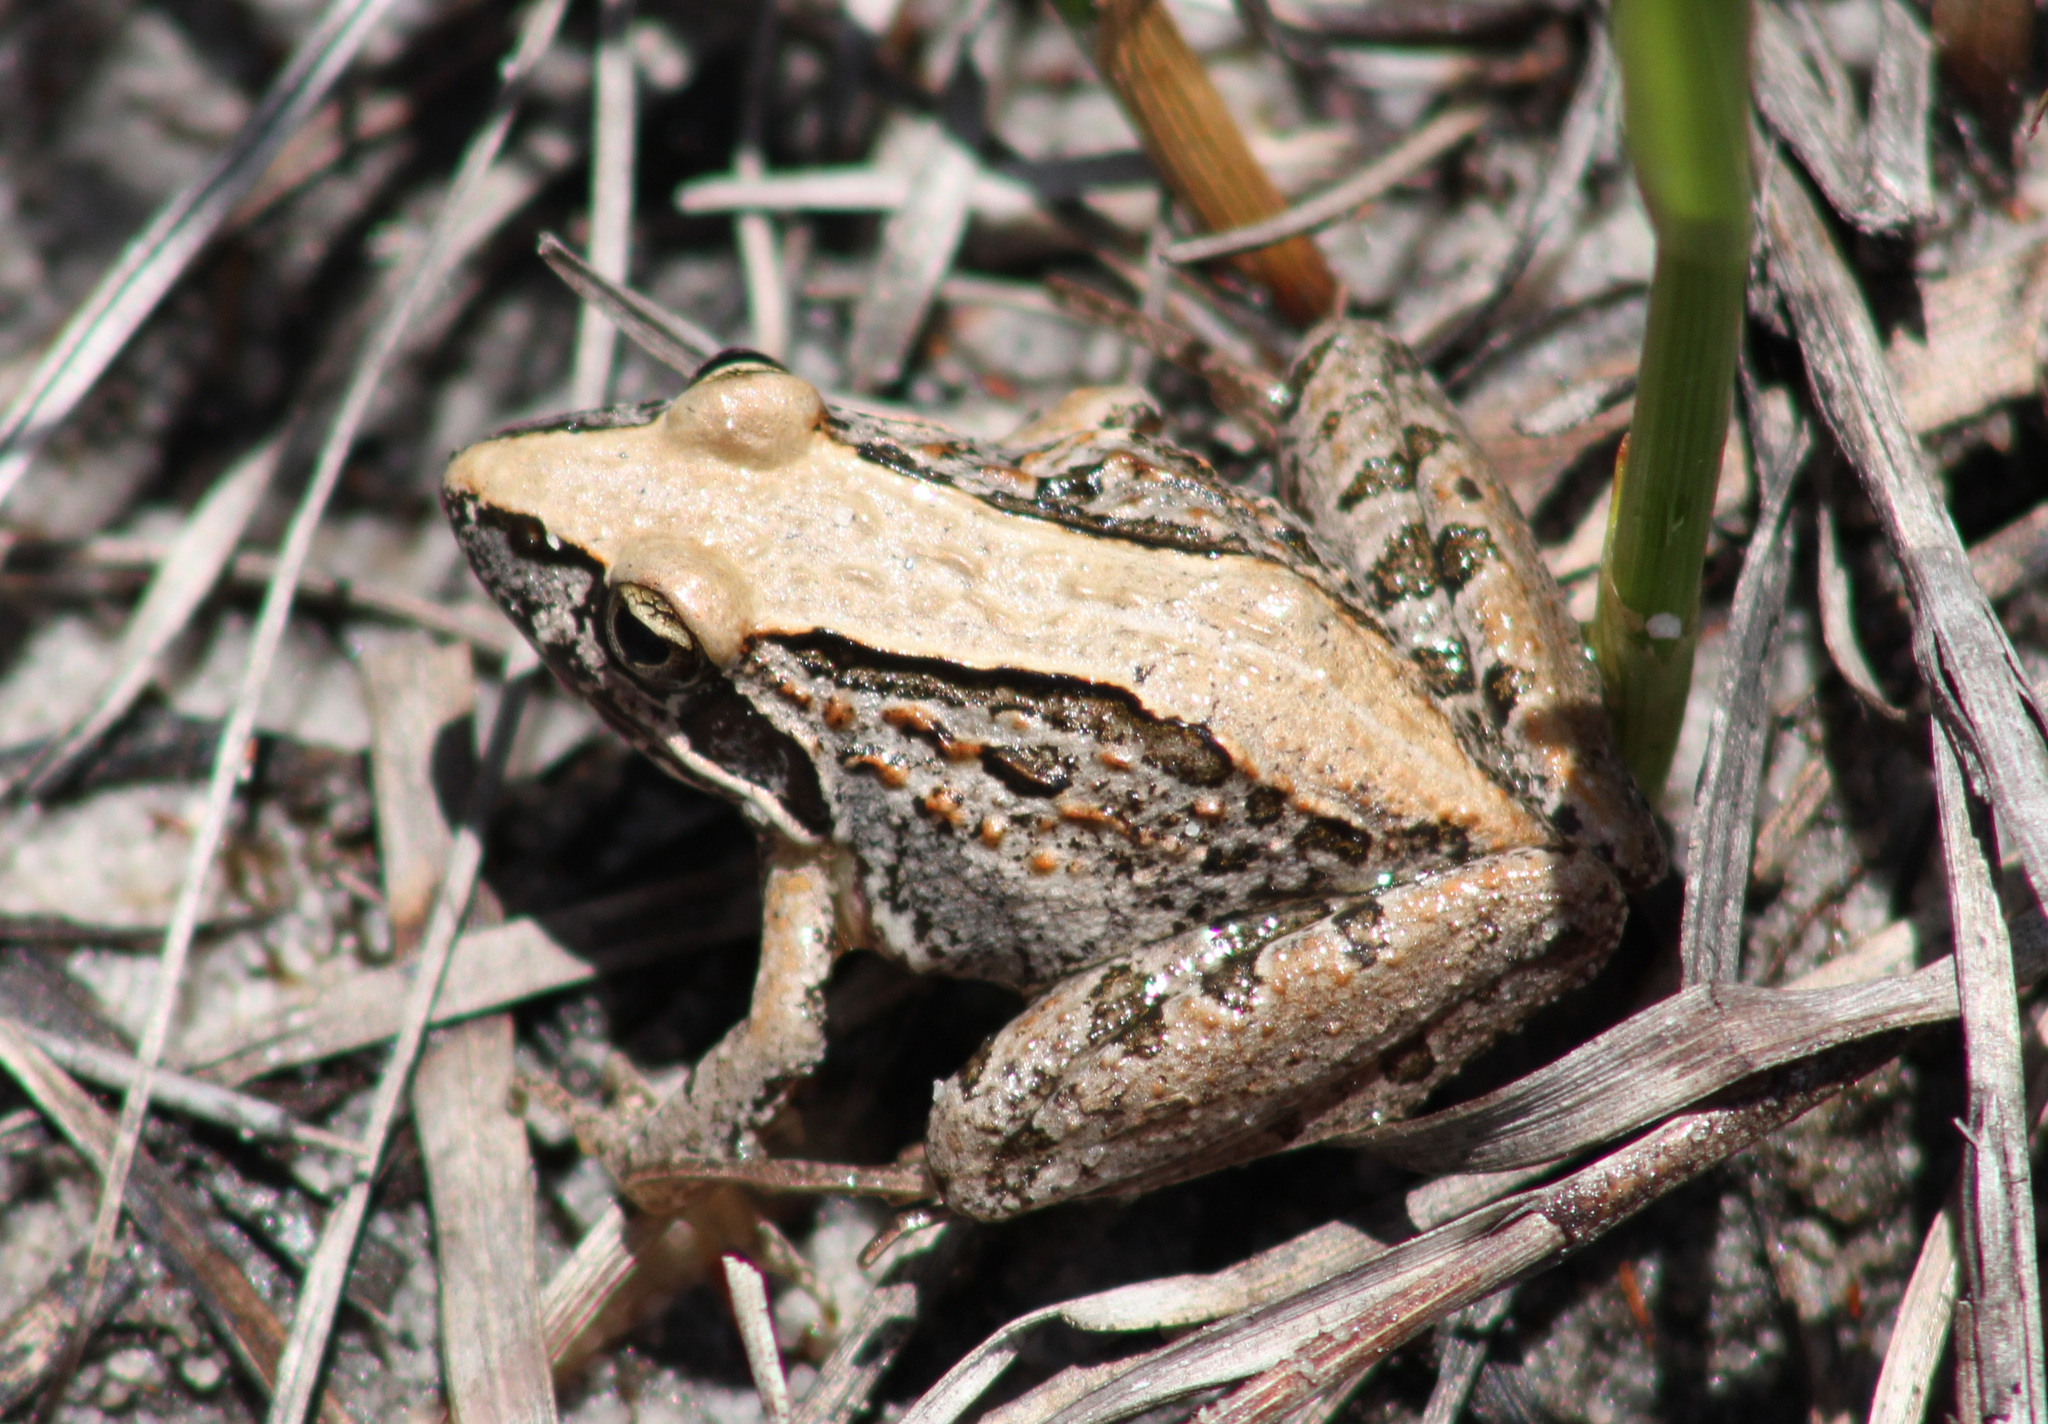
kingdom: Animalia
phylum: Chordata
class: Amphibia
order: Anura
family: Pyxicephalidae
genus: Strongylopus
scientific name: Strongylopus grayii
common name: Gray's stream frog
